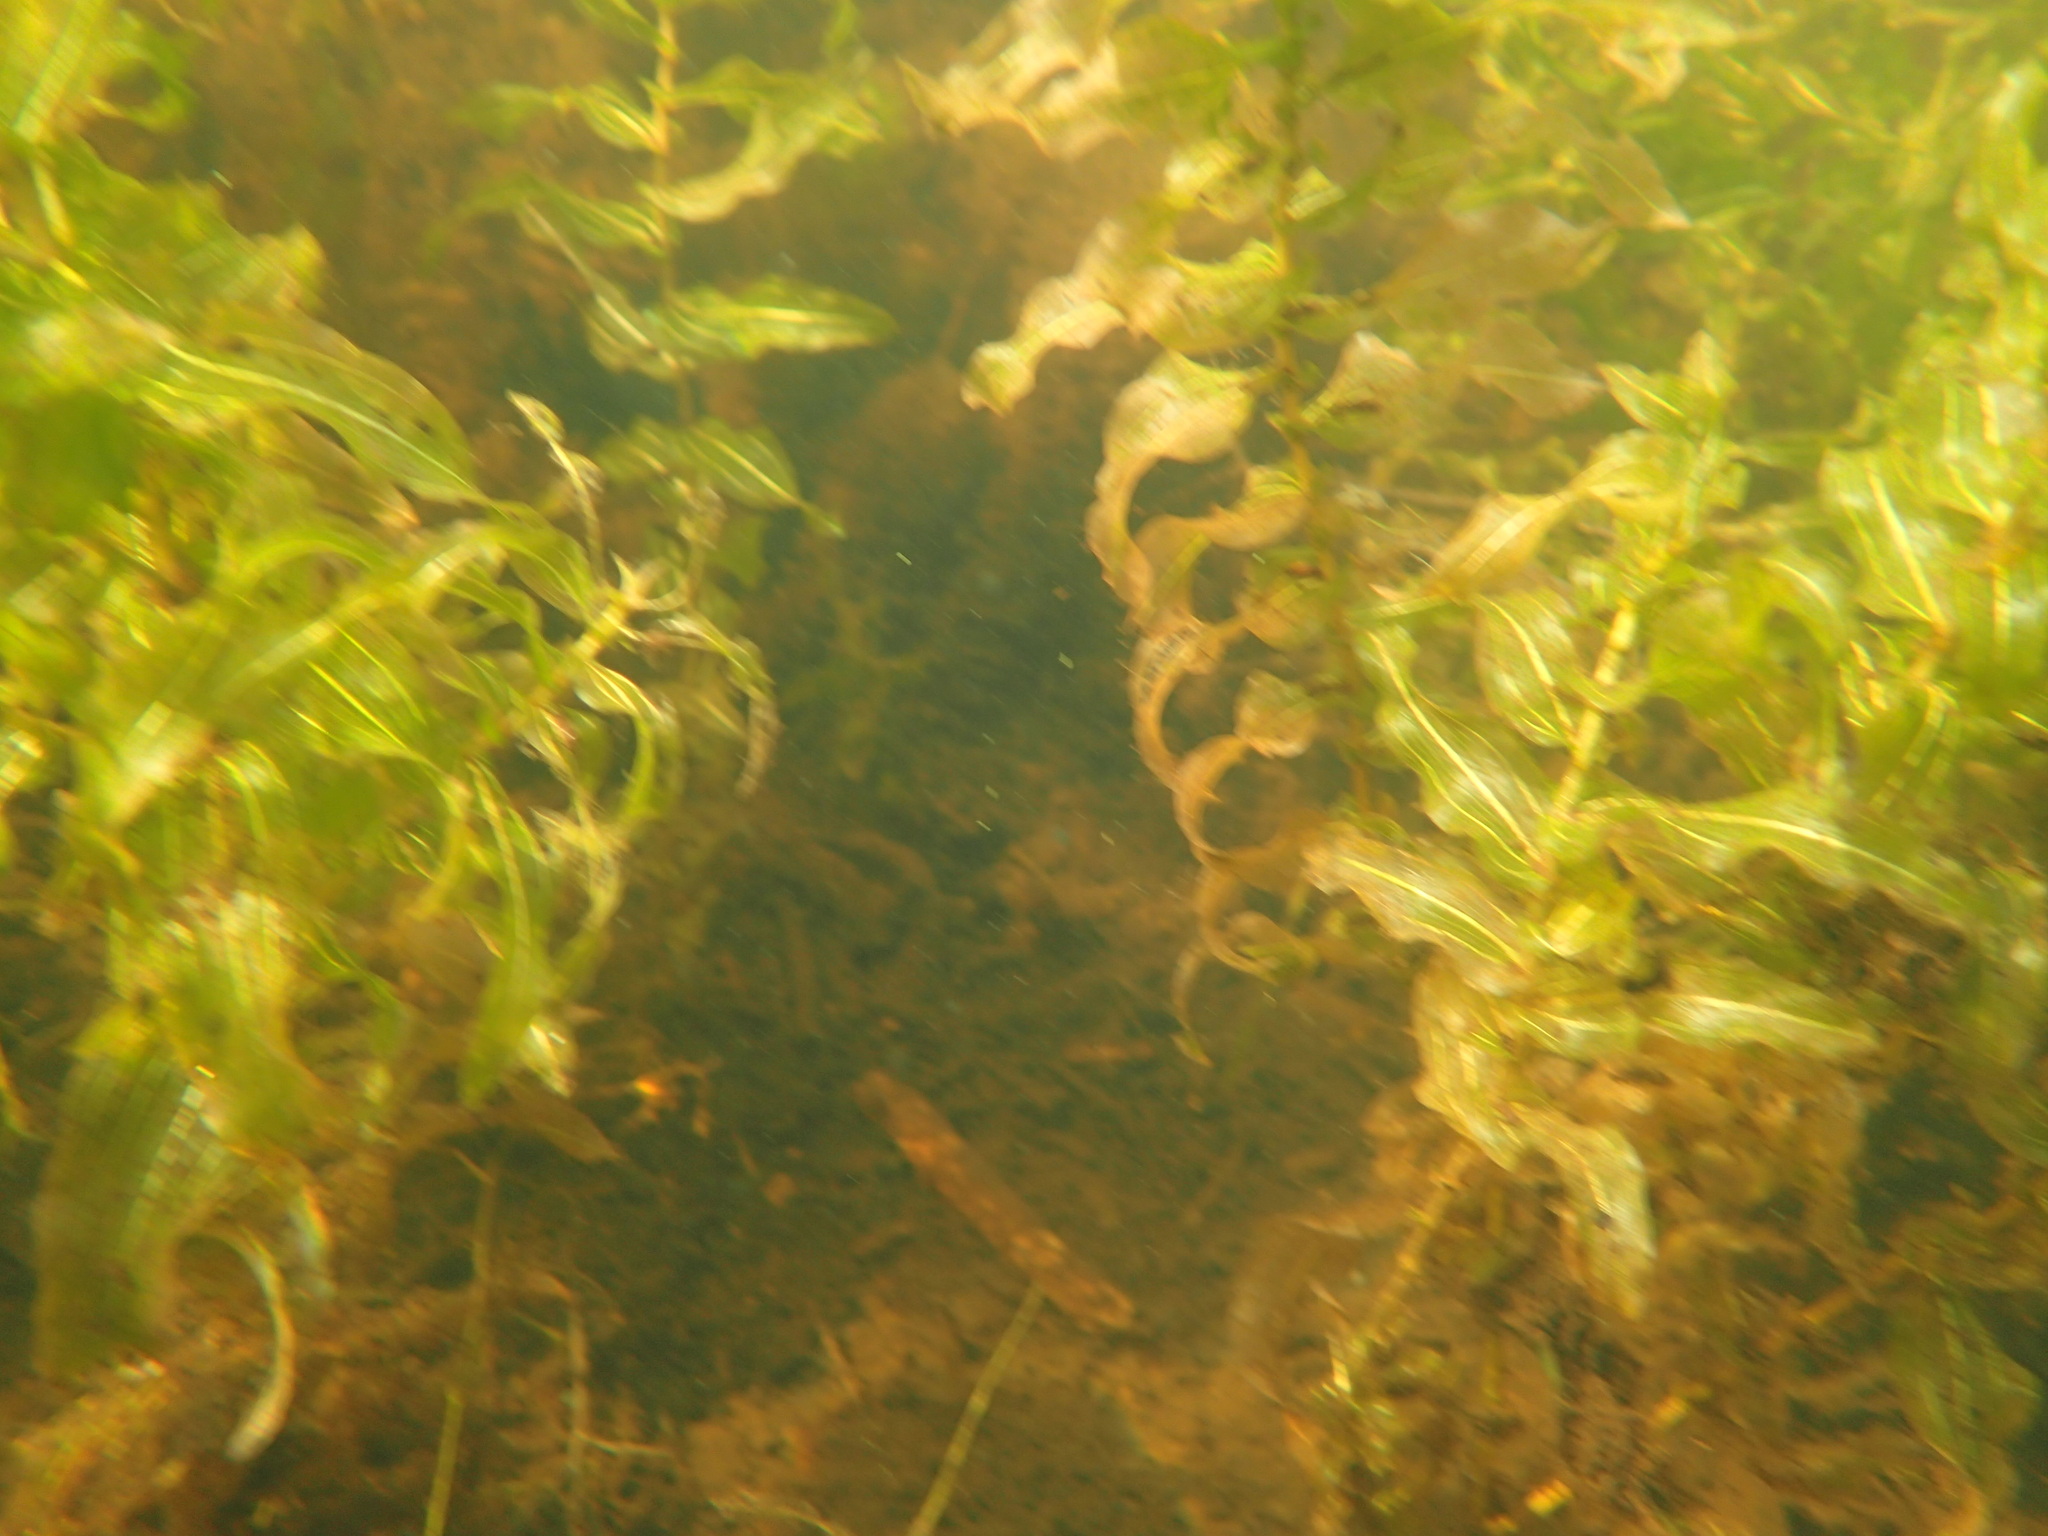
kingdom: Plantae
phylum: Tracheophyta
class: Liliopsida
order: Alismatales
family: Potamogetonaceae
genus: Potamogeton
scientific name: Potamogeton richardsonii
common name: Richardson's pondweed
